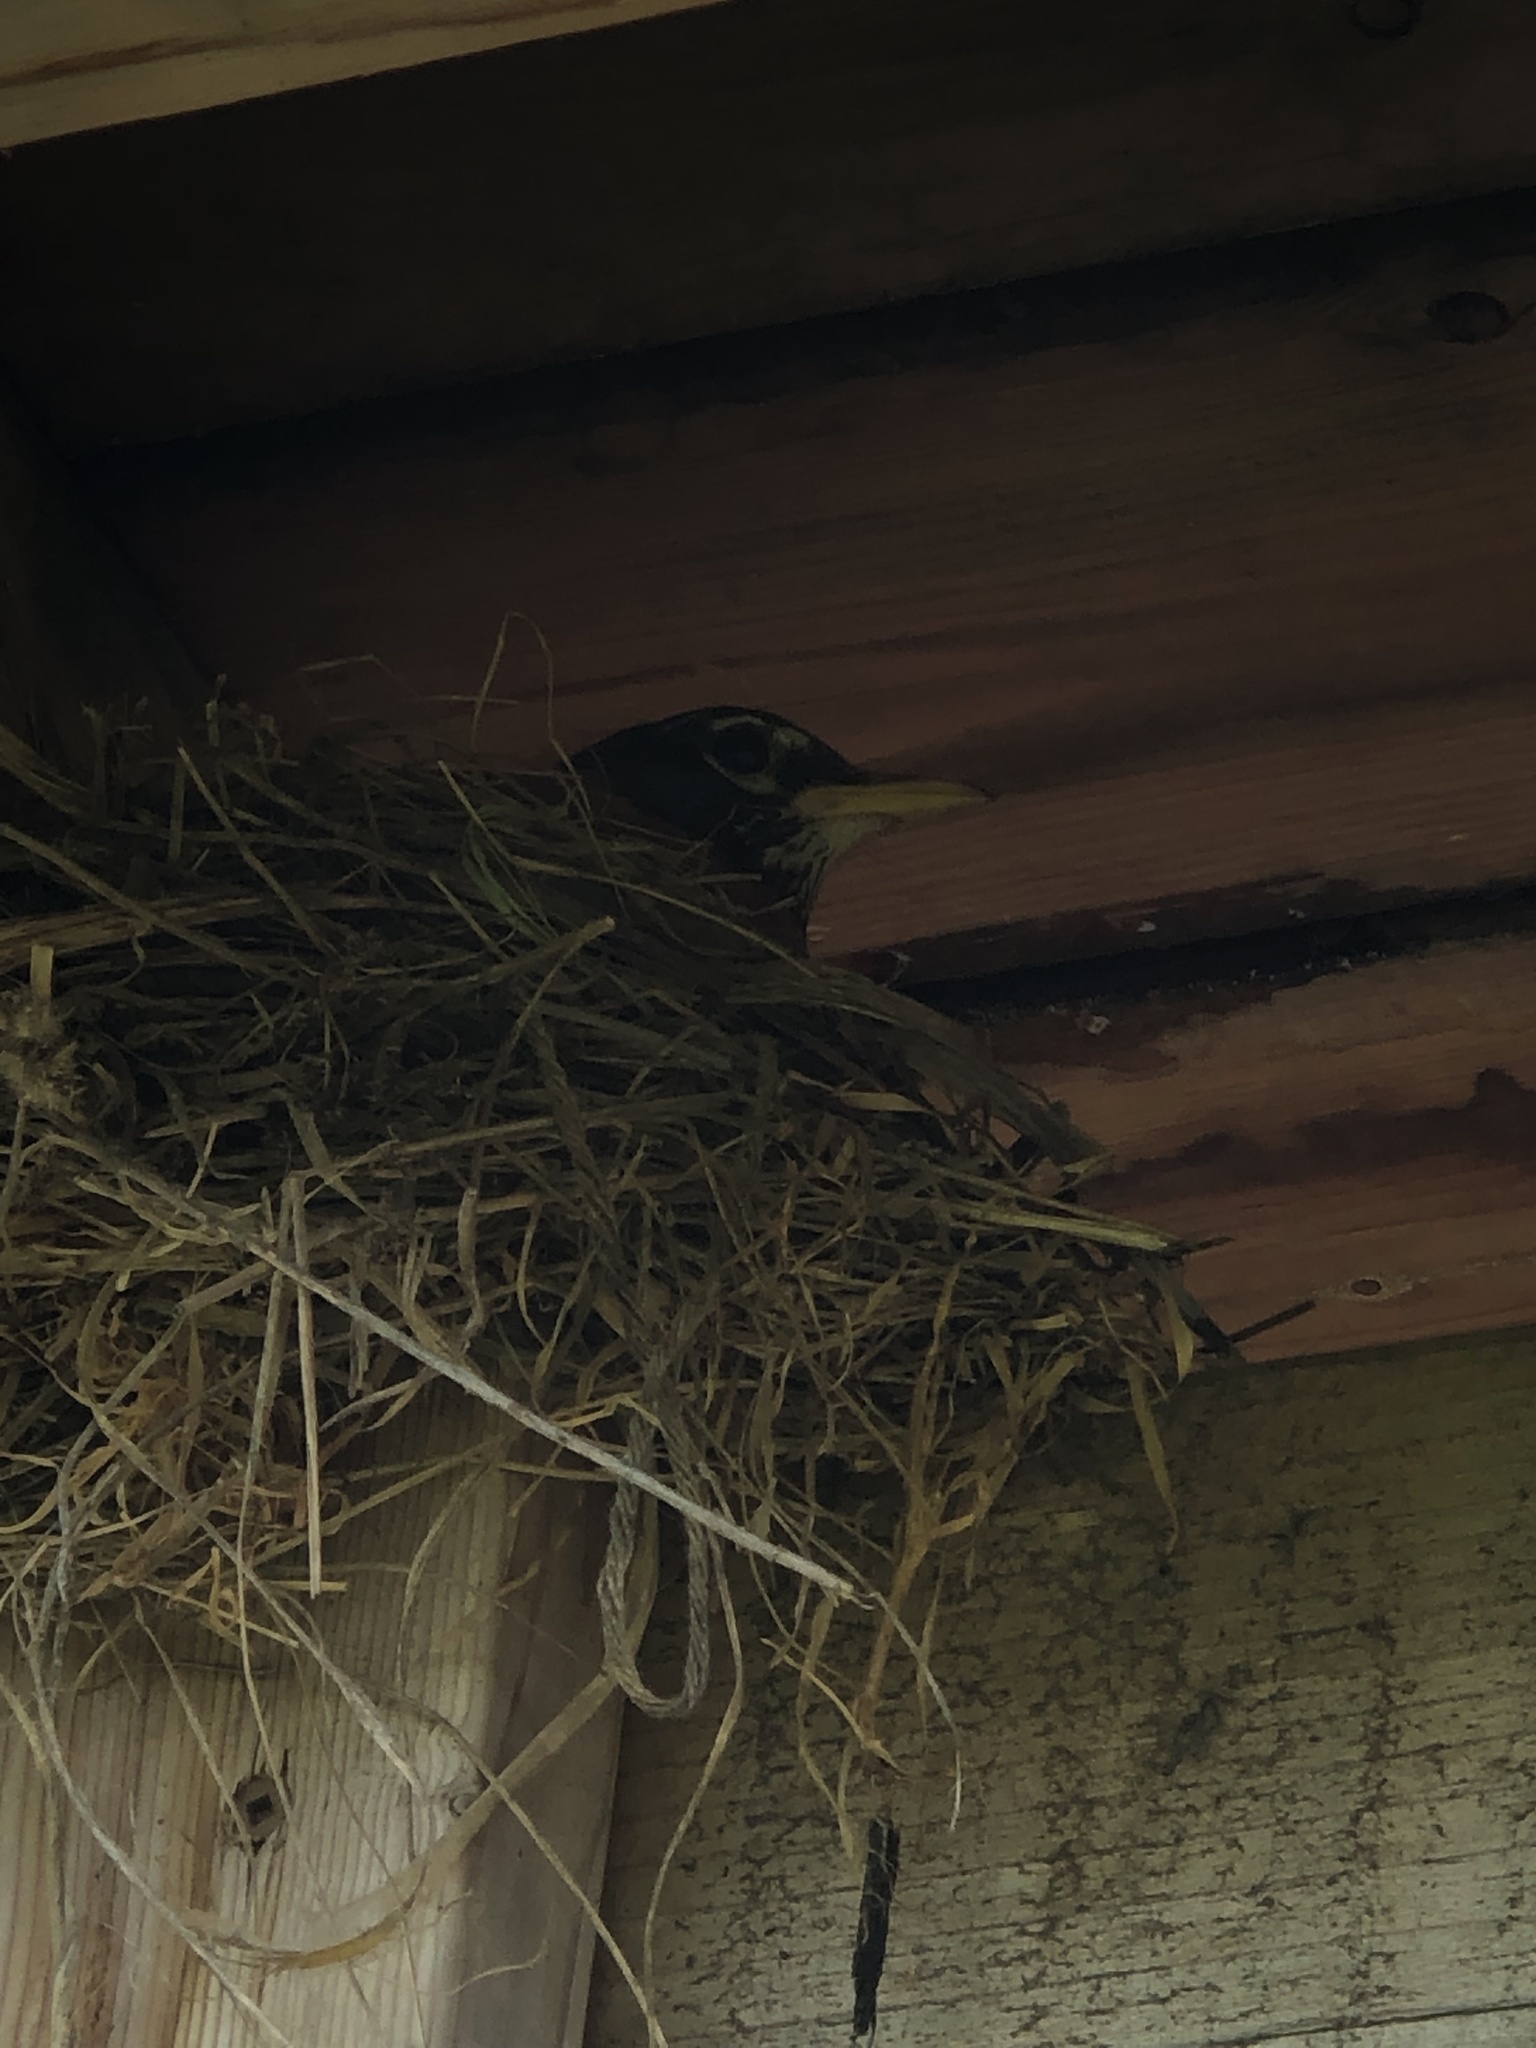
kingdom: Animalia
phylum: Chordata
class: Aves
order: Passeriformes
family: Turdidae
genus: Turdus
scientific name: Turdus migratorius
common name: American robin
